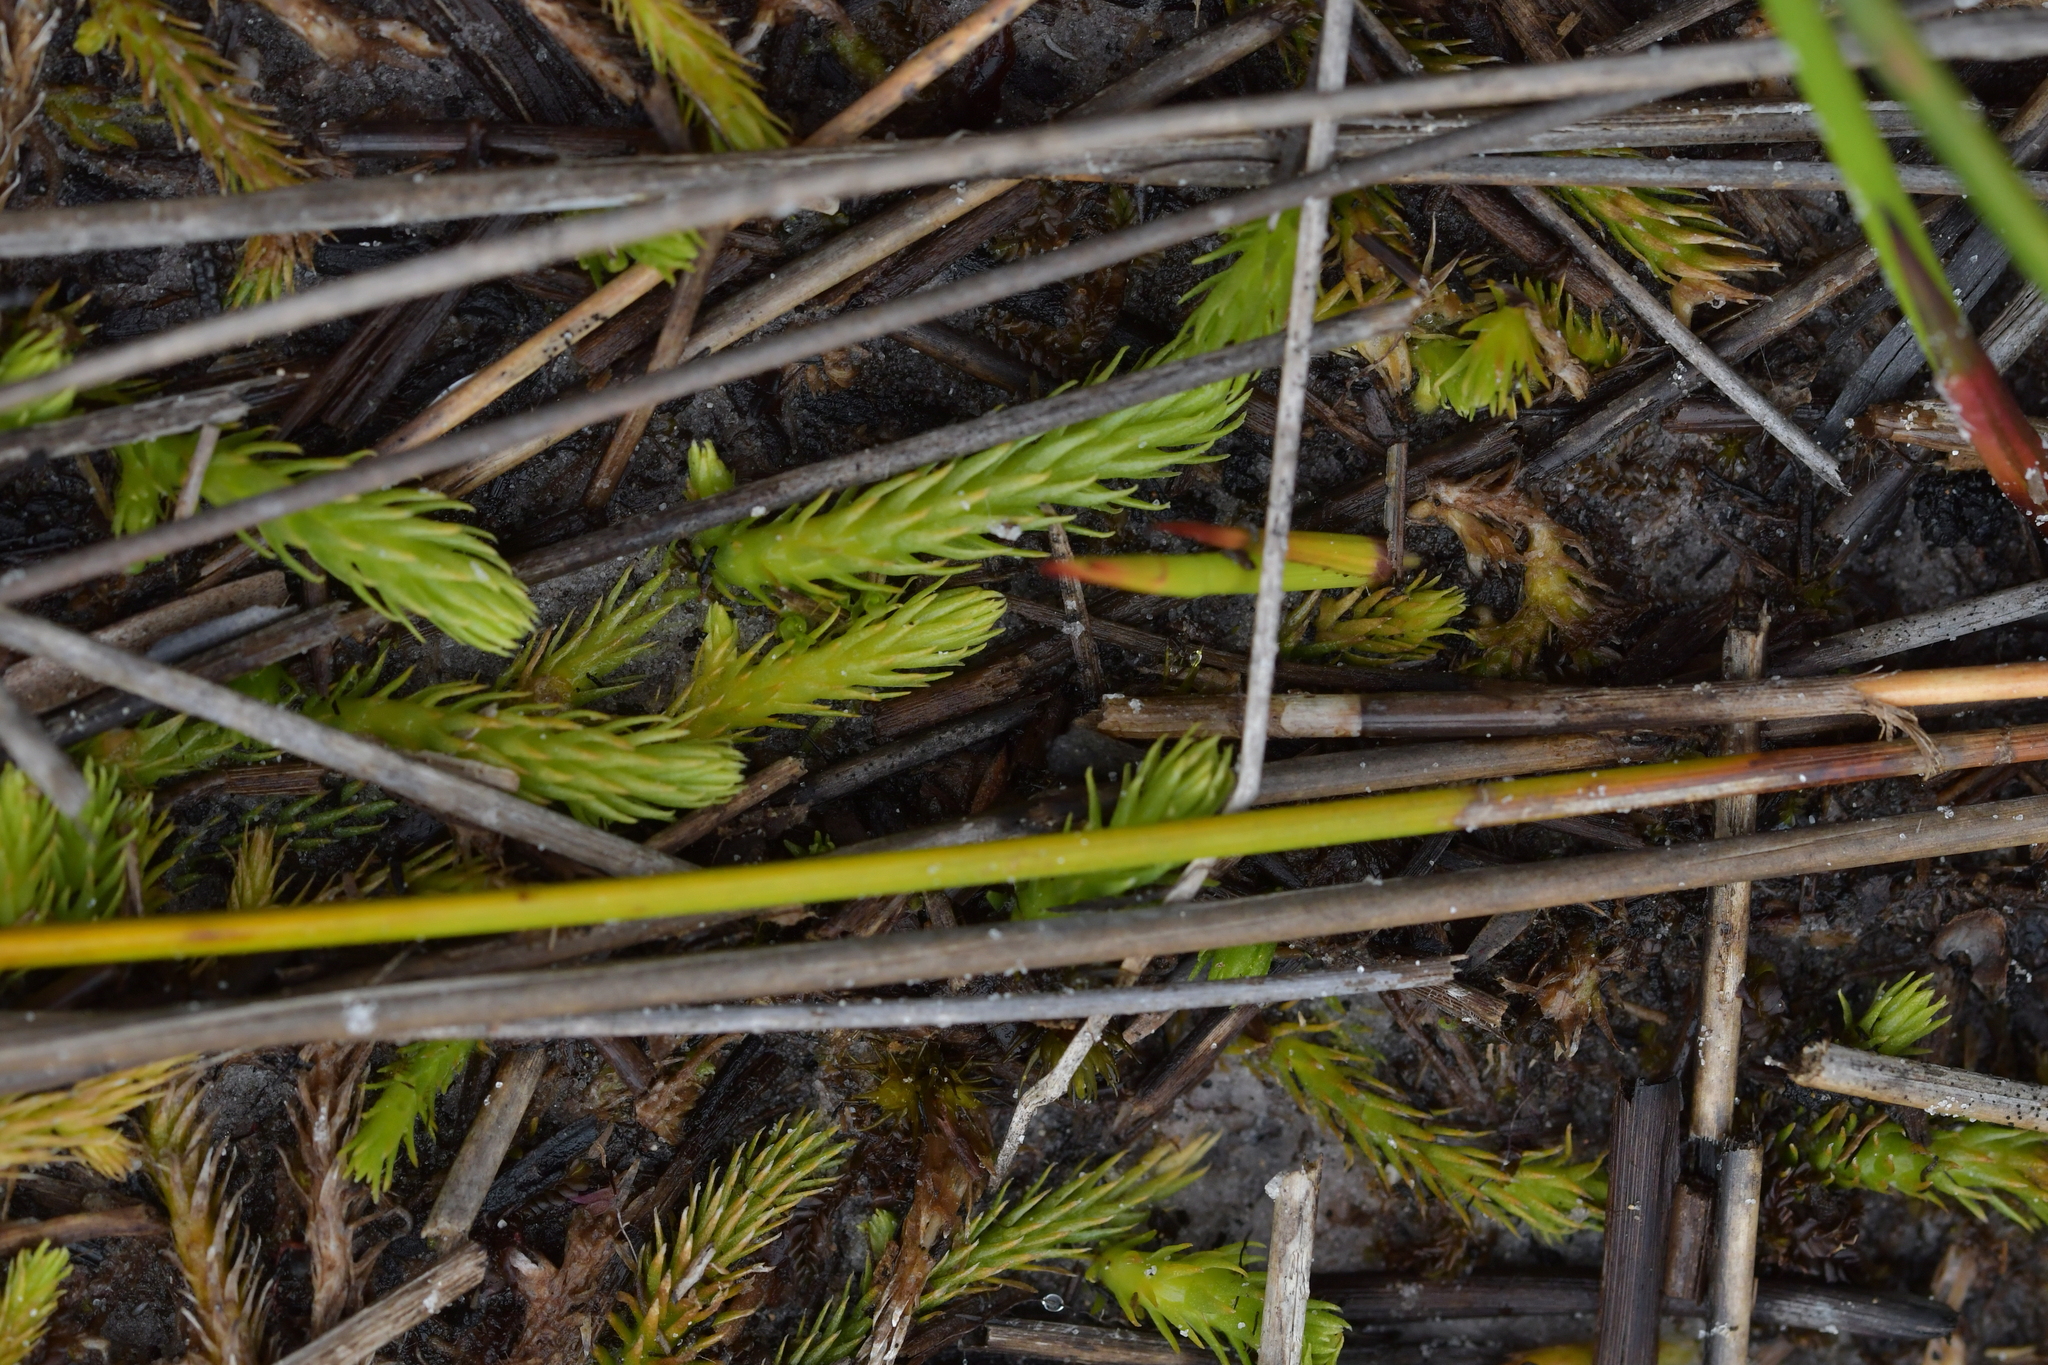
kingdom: Plantae
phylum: Tracheophyta
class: Lycopodiopsida
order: Lycopodiales
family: Lycopodiaceae
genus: Brownseya
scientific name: Brownseya serpentina
